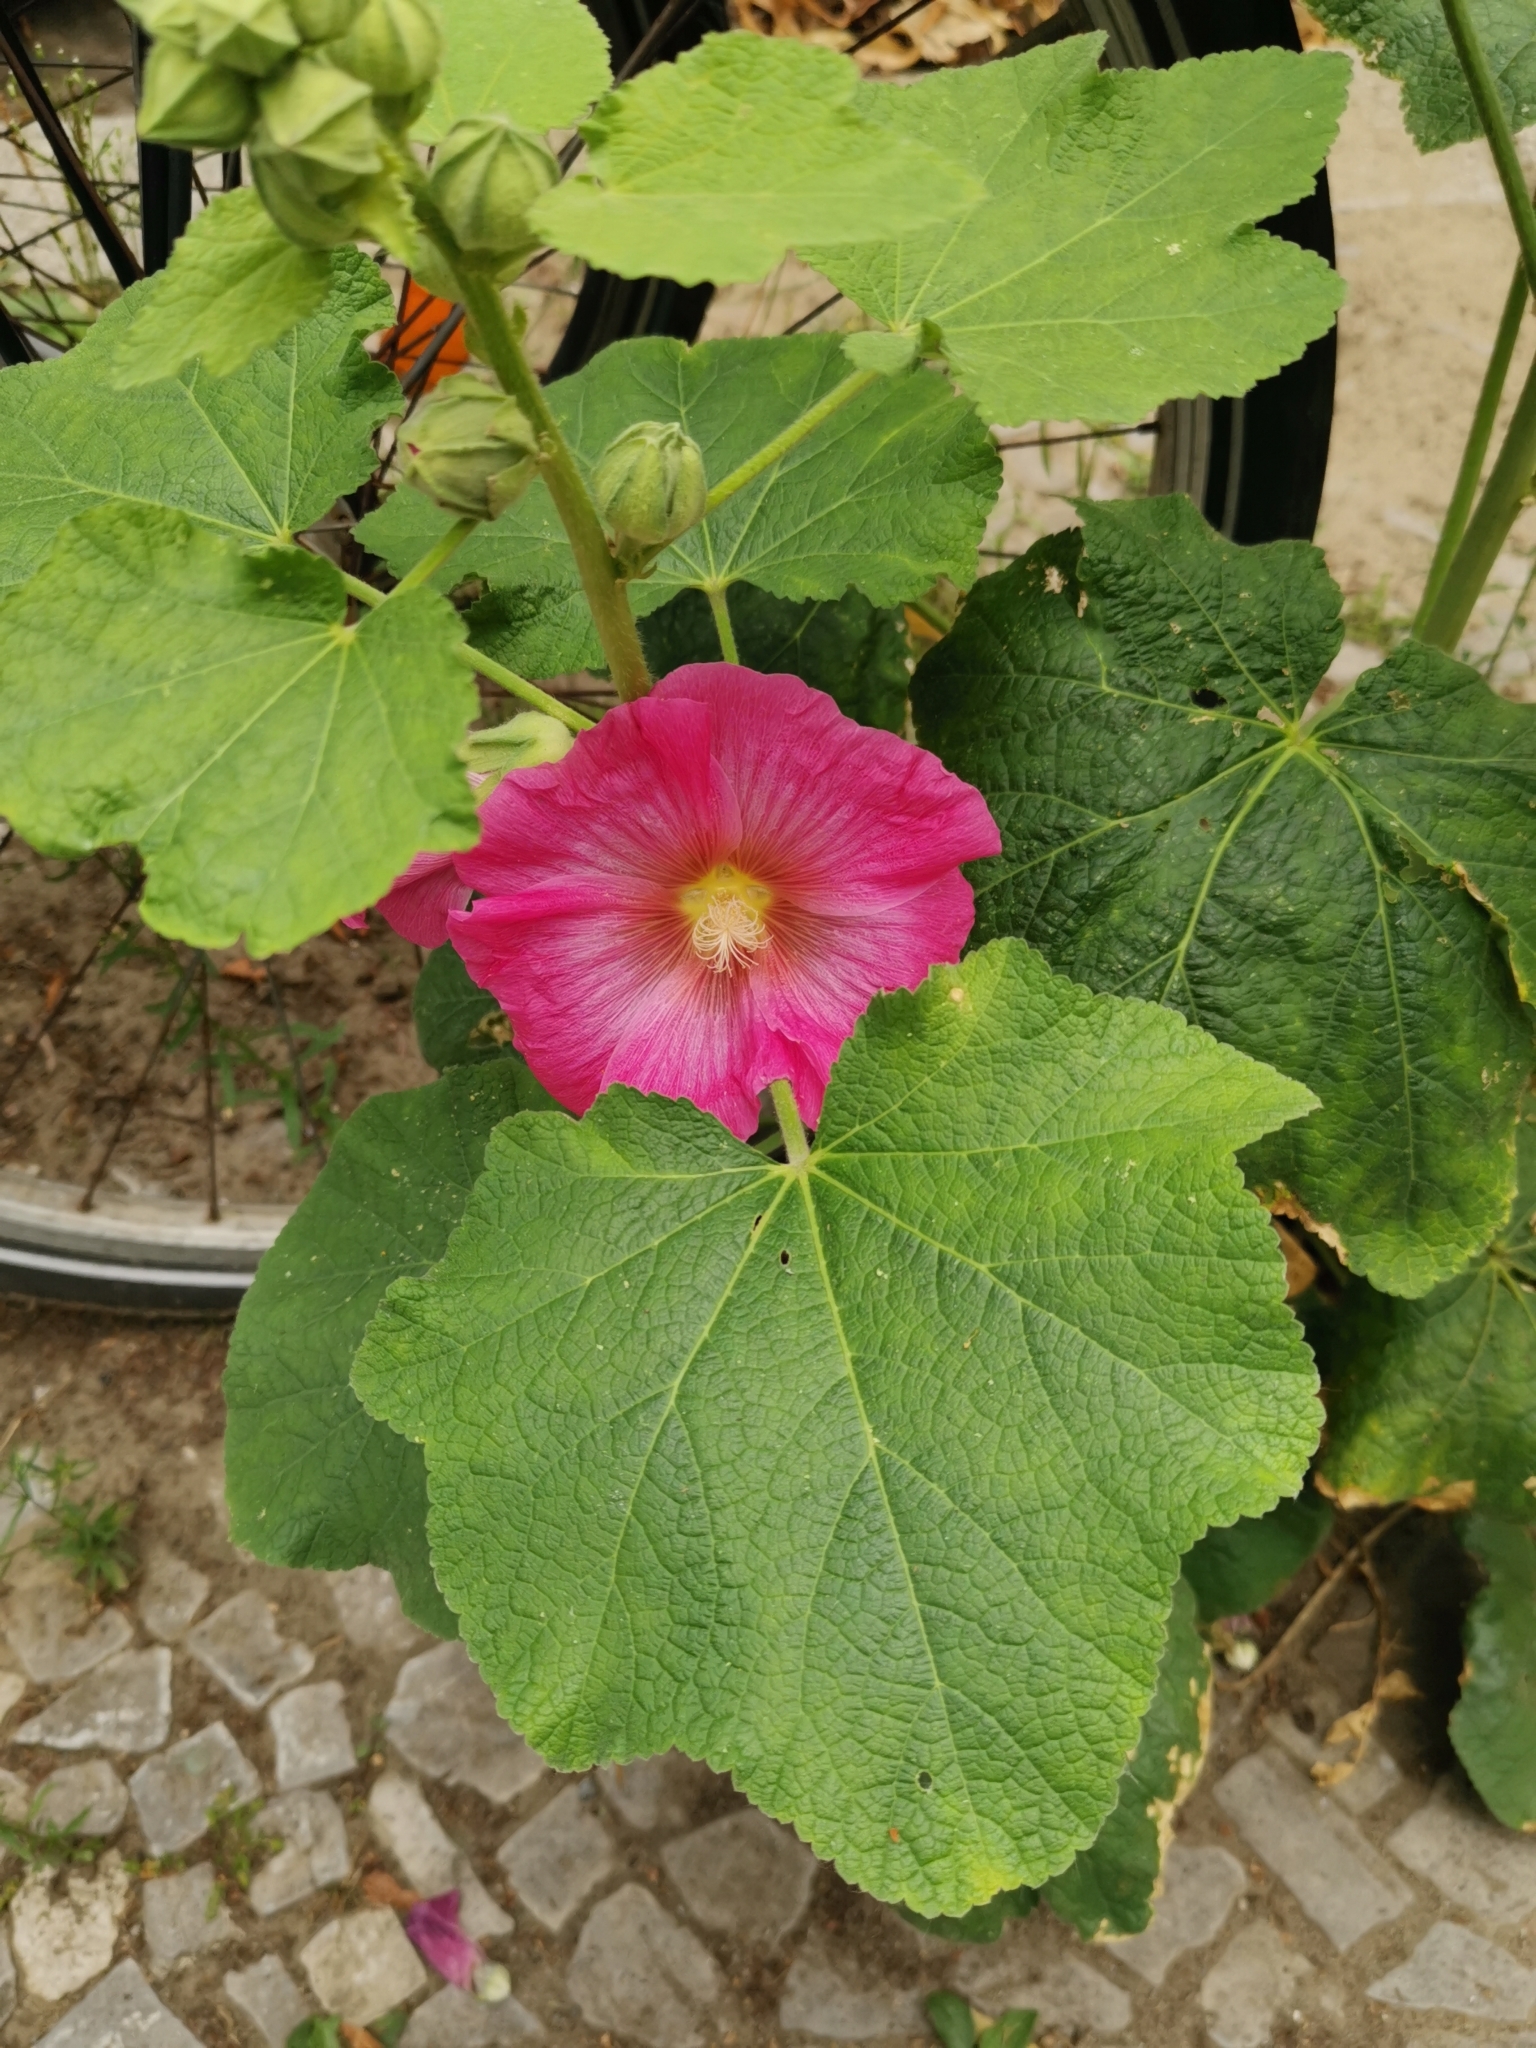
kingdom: Plantae
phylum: Tracheophyta
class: Magnoliopsida
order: Malvales
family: Malvaceae
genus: Alcea
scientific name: Alcea rosea
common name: Hollyhock
